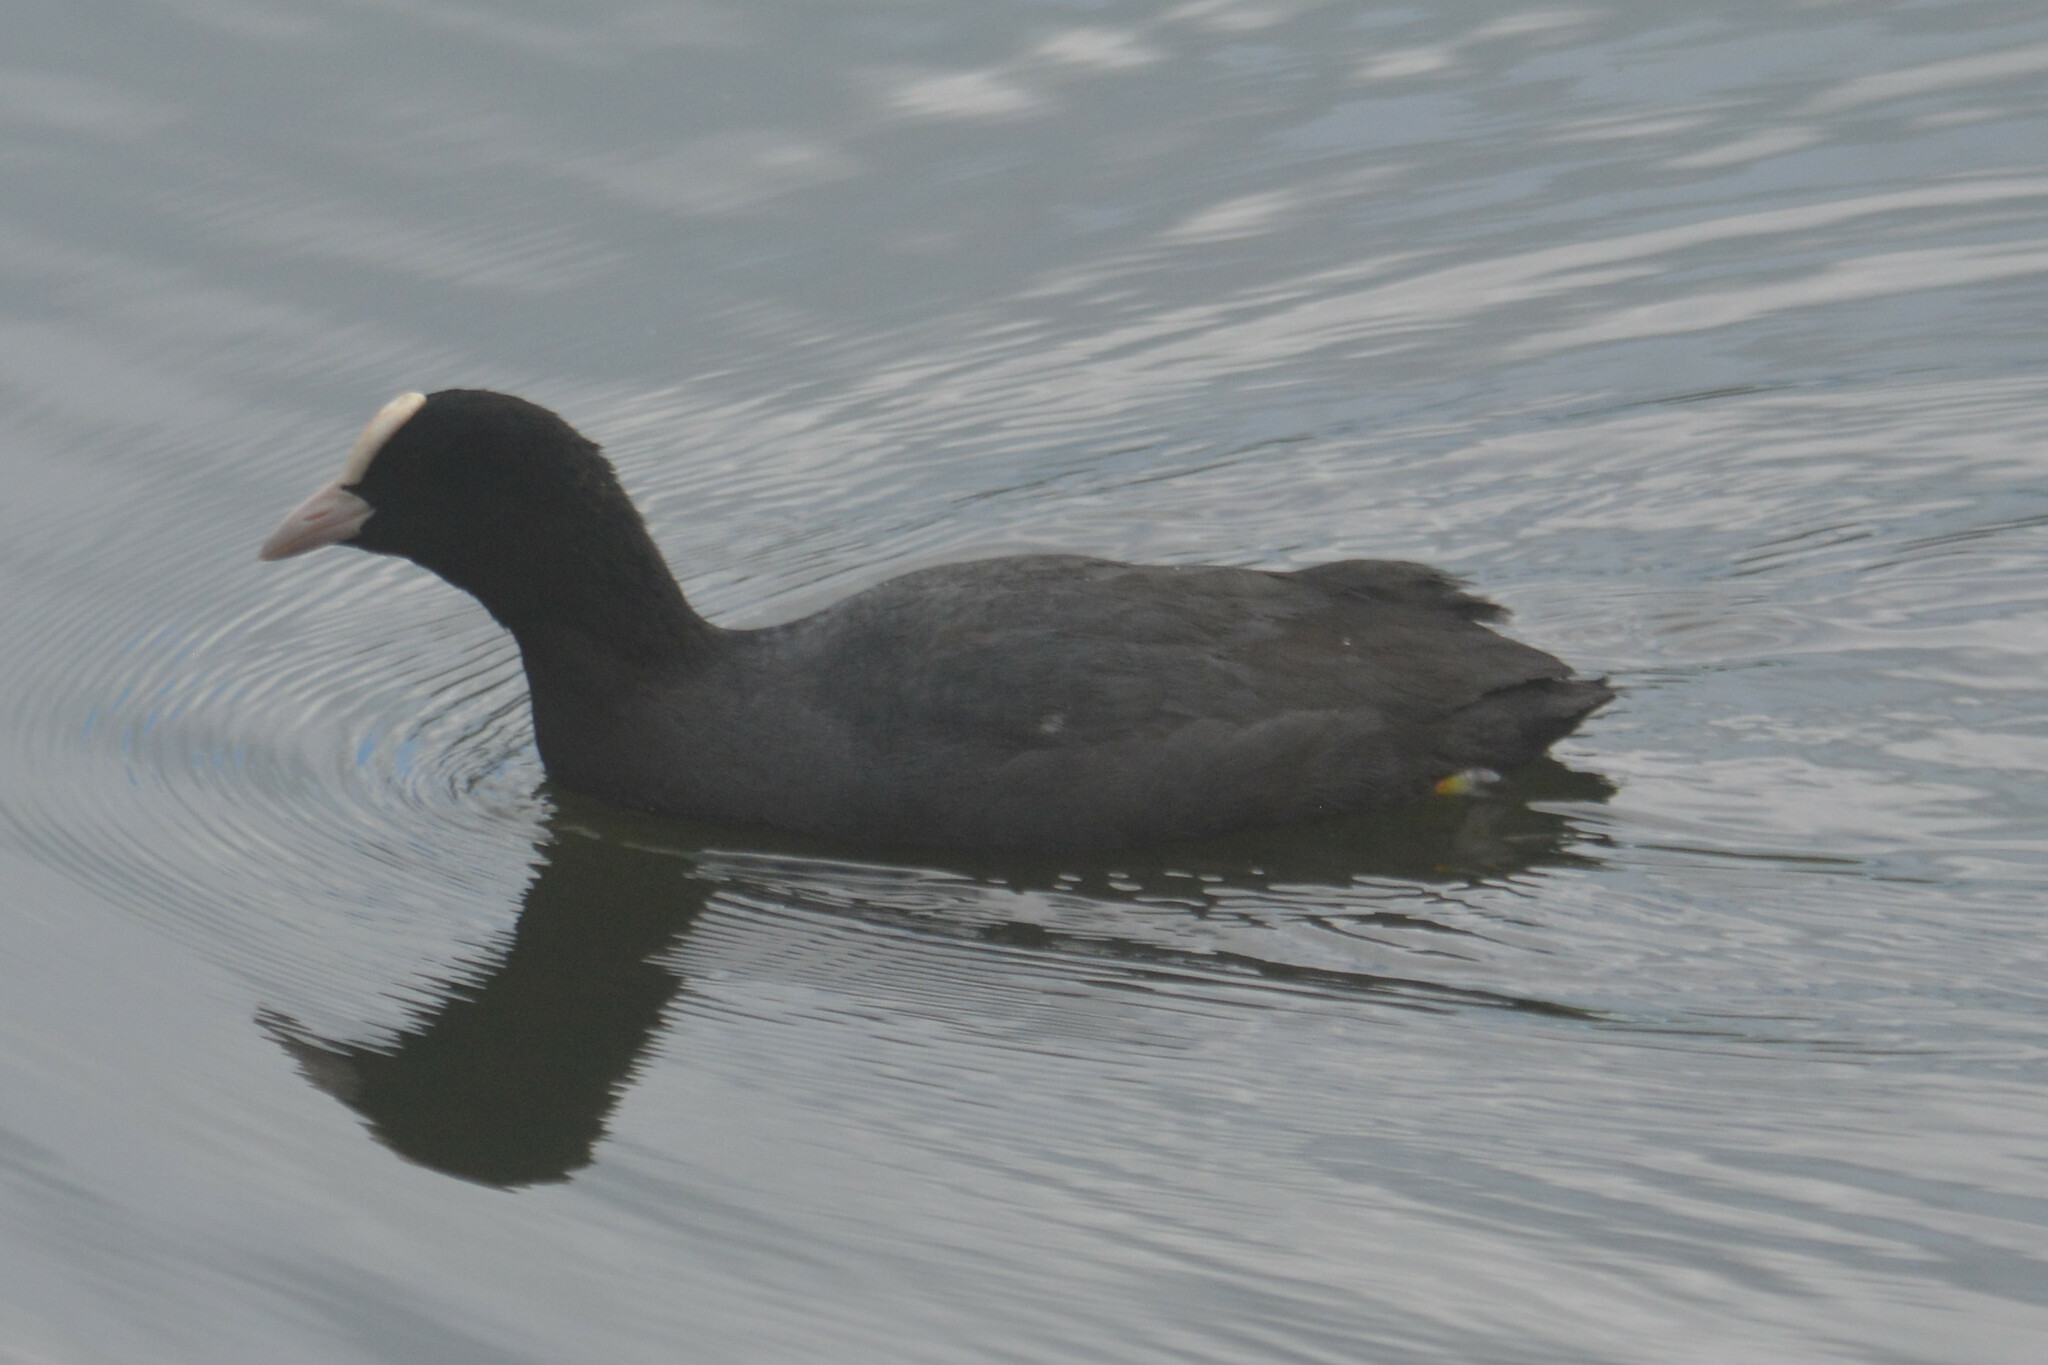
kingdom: Animalia
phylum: Chordata
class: Aves
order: Gruiformes
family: Rallidae
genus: Fulica
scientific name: Fulica atra
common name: Eurasian coot
